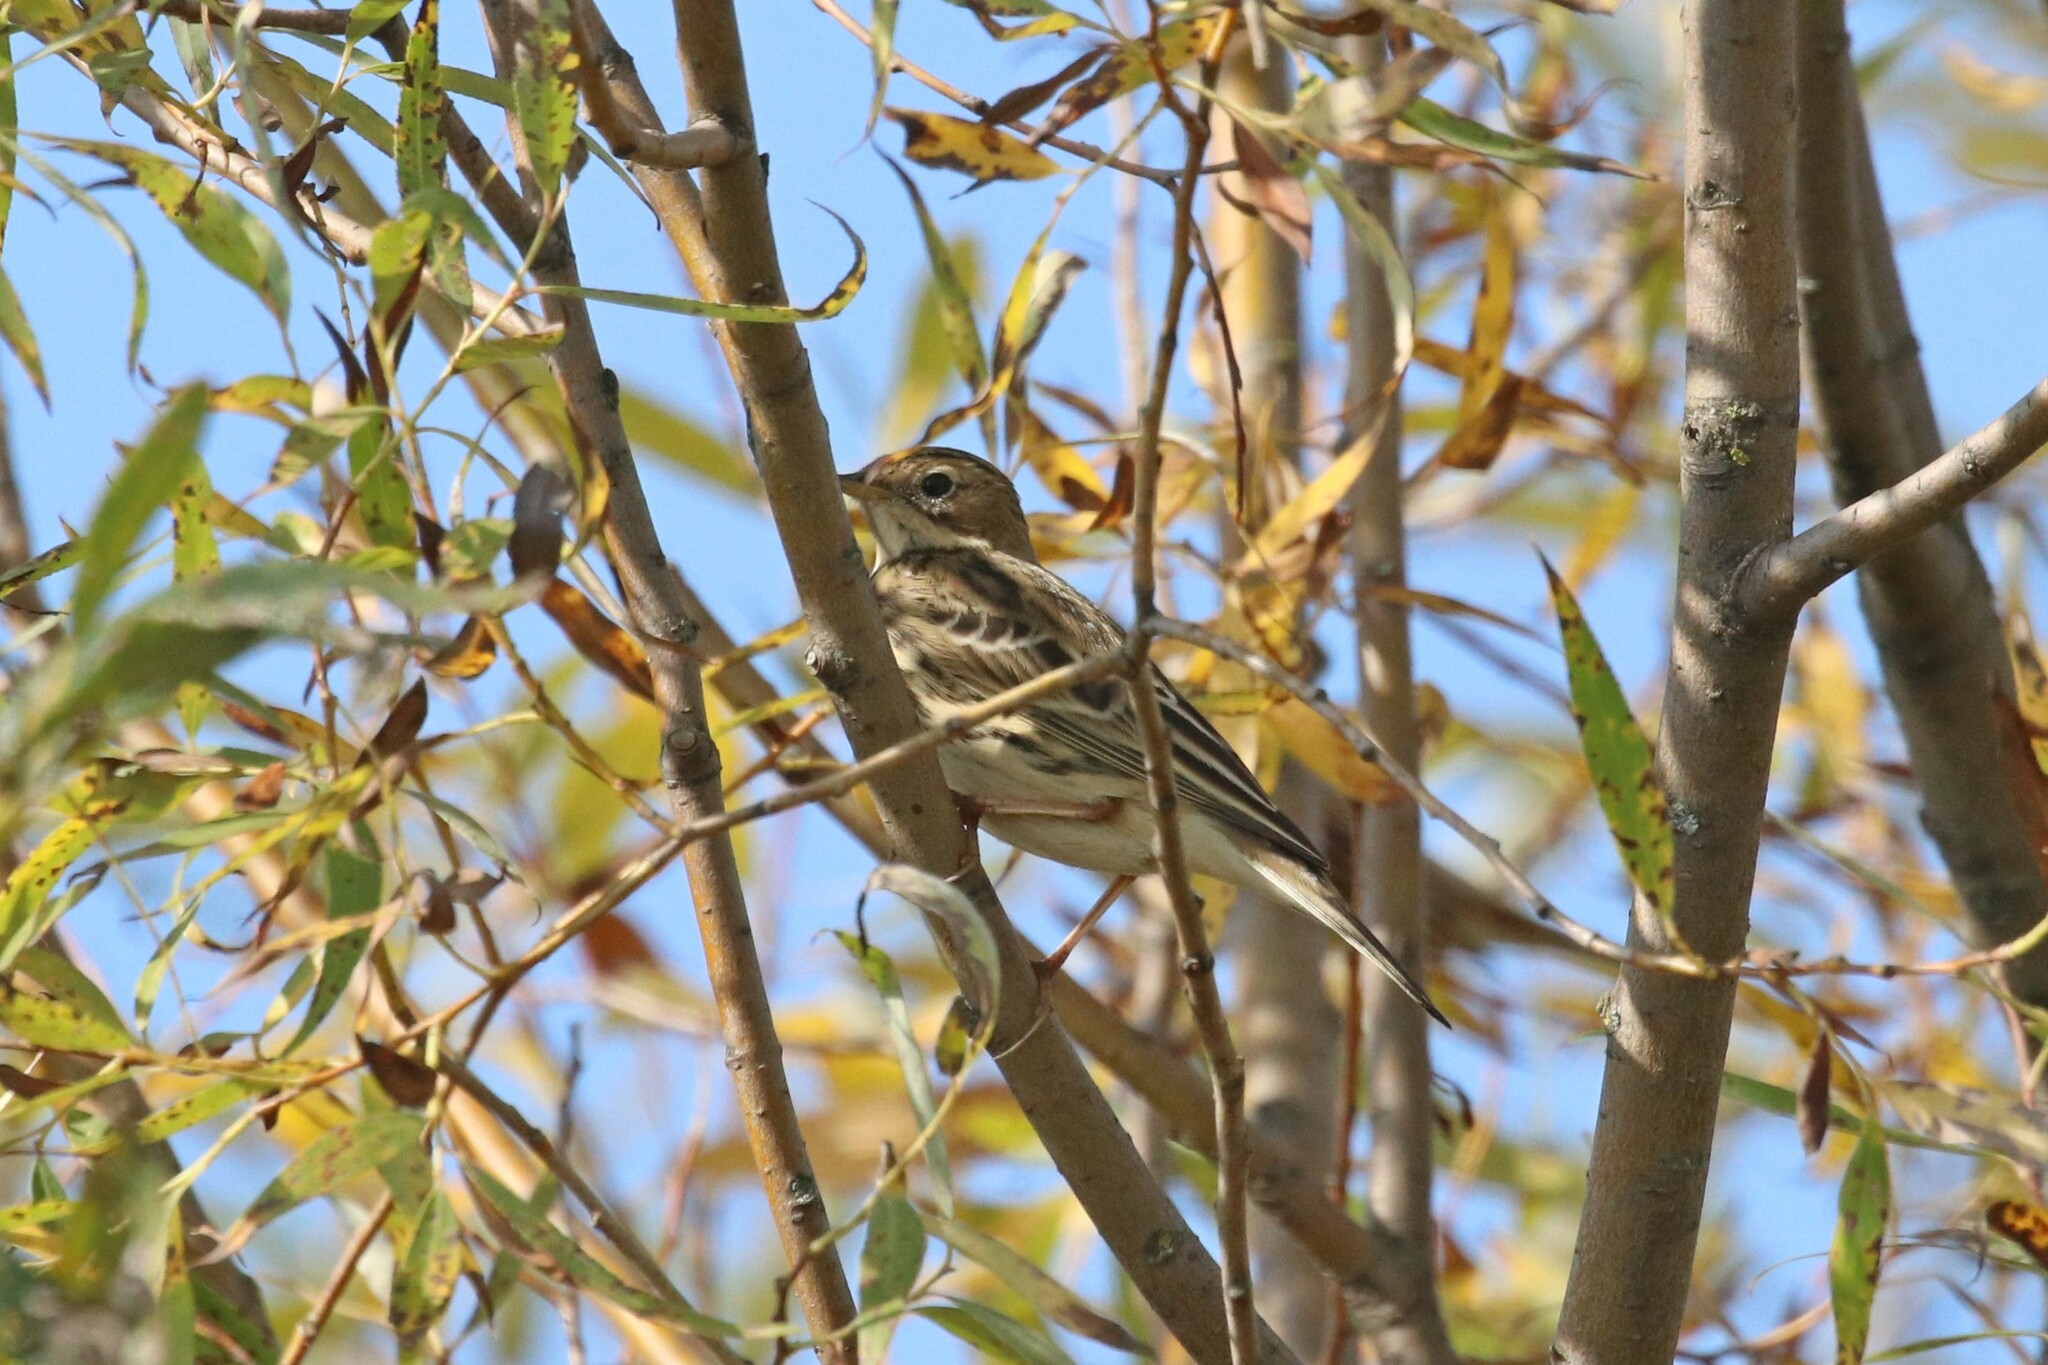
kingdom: Animalia
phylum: Chordata
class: Aves
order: Passeriformes
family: Motacillidae
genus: Anthus
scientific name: Anthus cervinus
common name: Red-throated pipit
